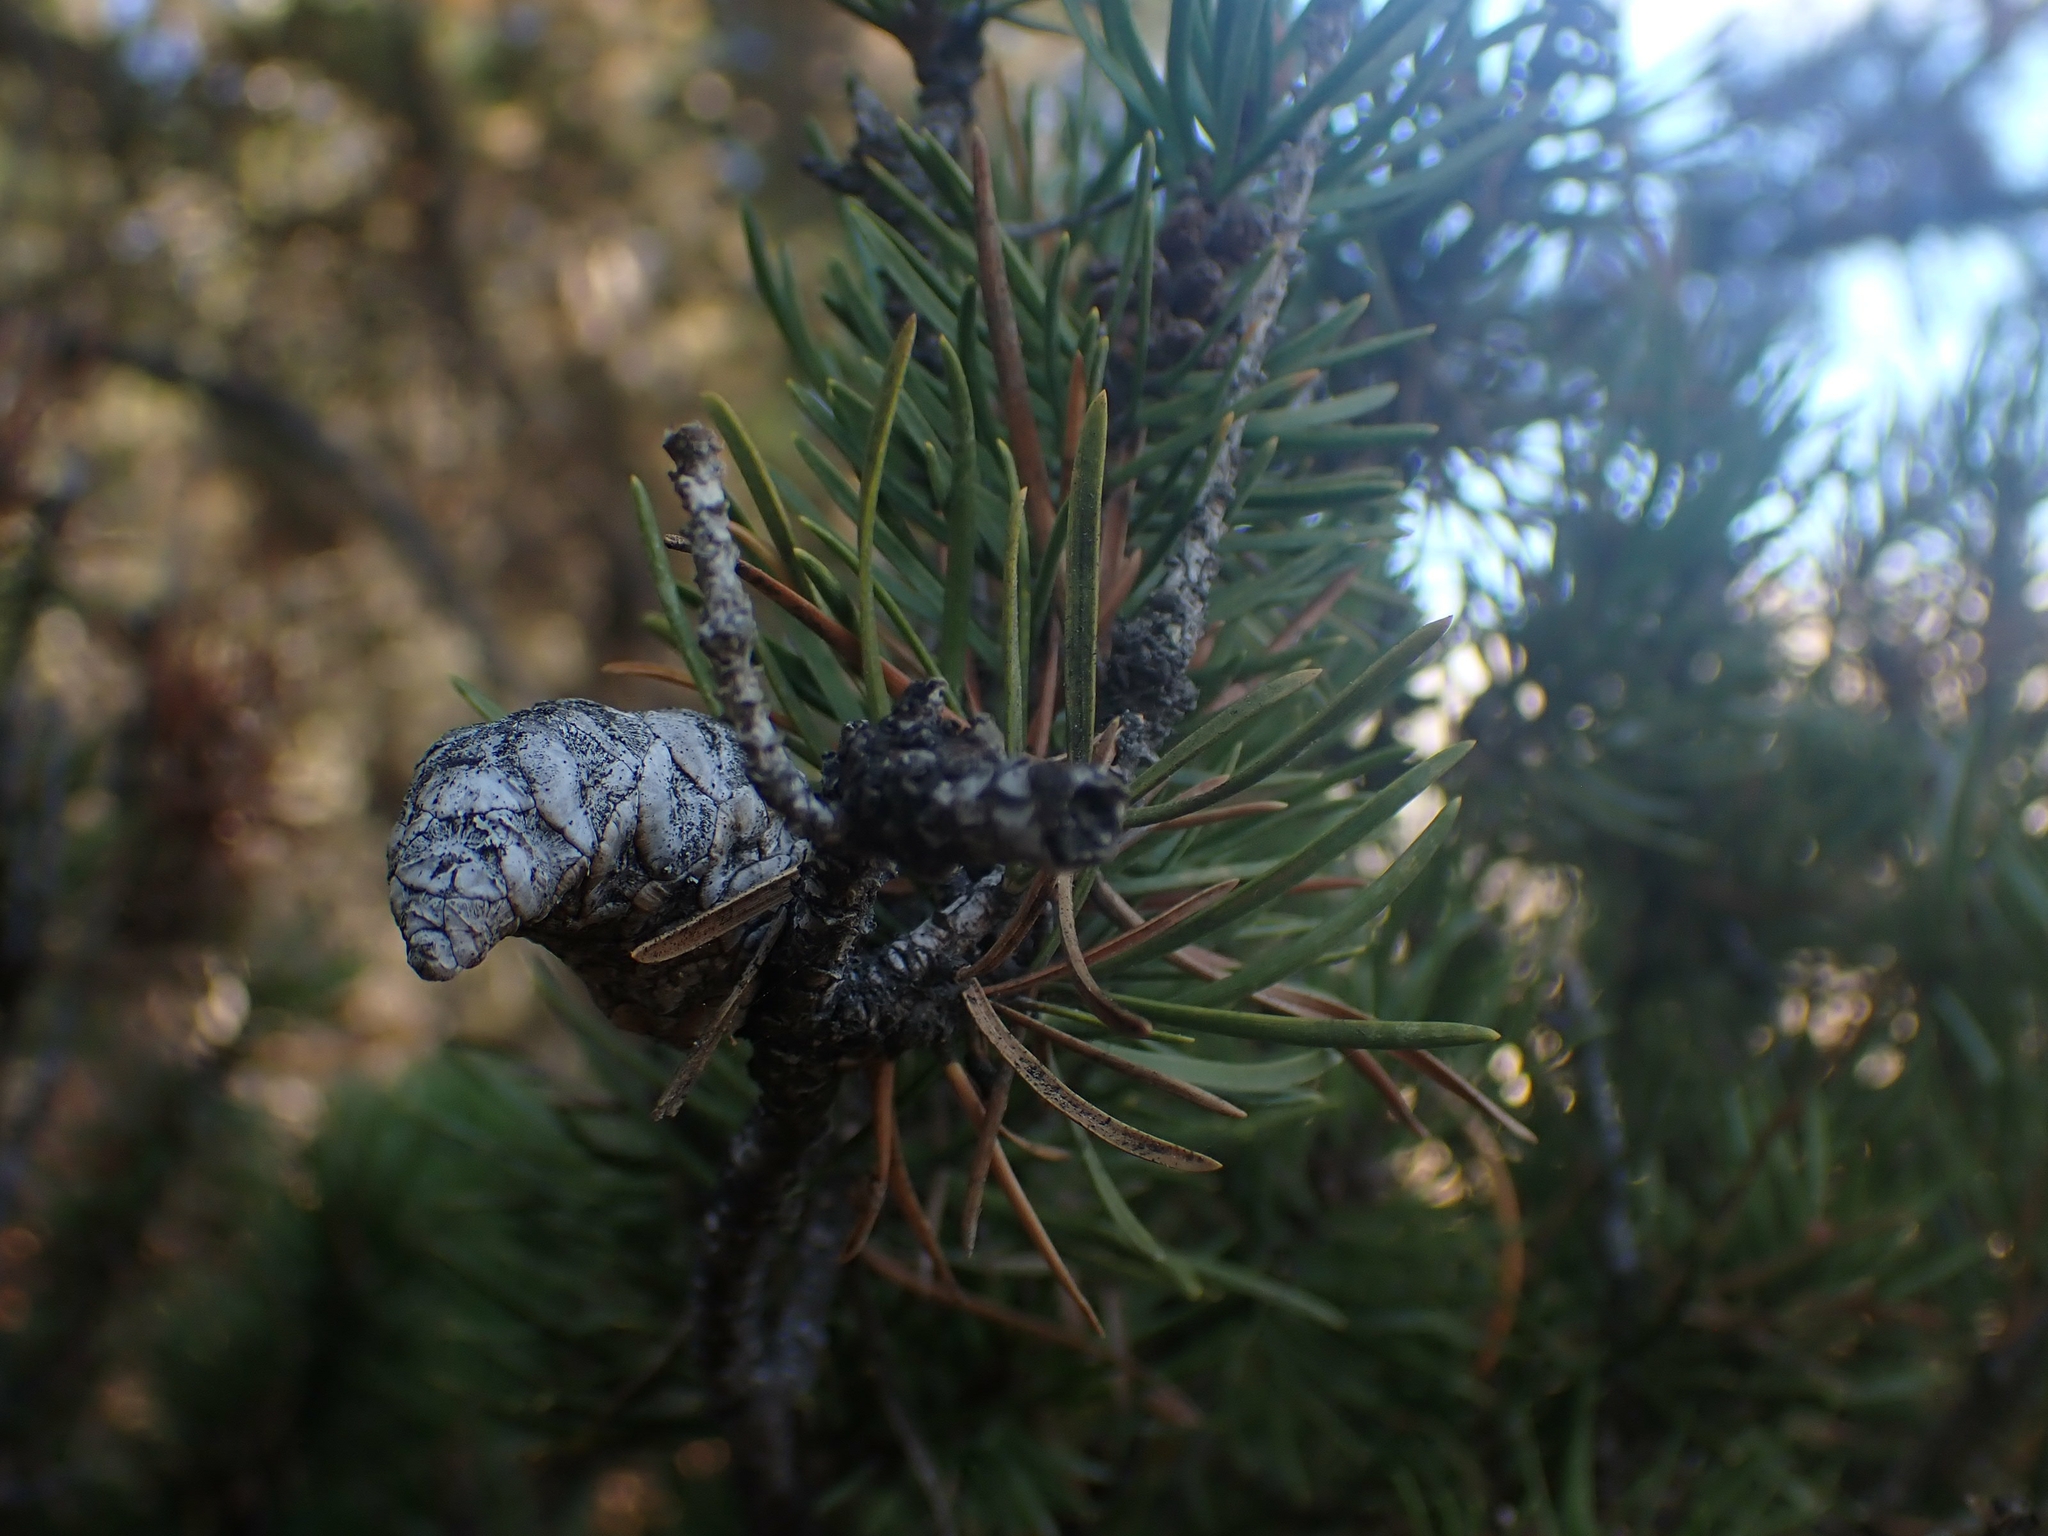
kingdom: Plantae
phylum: Tracheophyta
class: Pinopsida
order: Pinales
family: Pinaceae
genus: Pinus
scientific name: Pinus banksiana
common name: Jack pine
